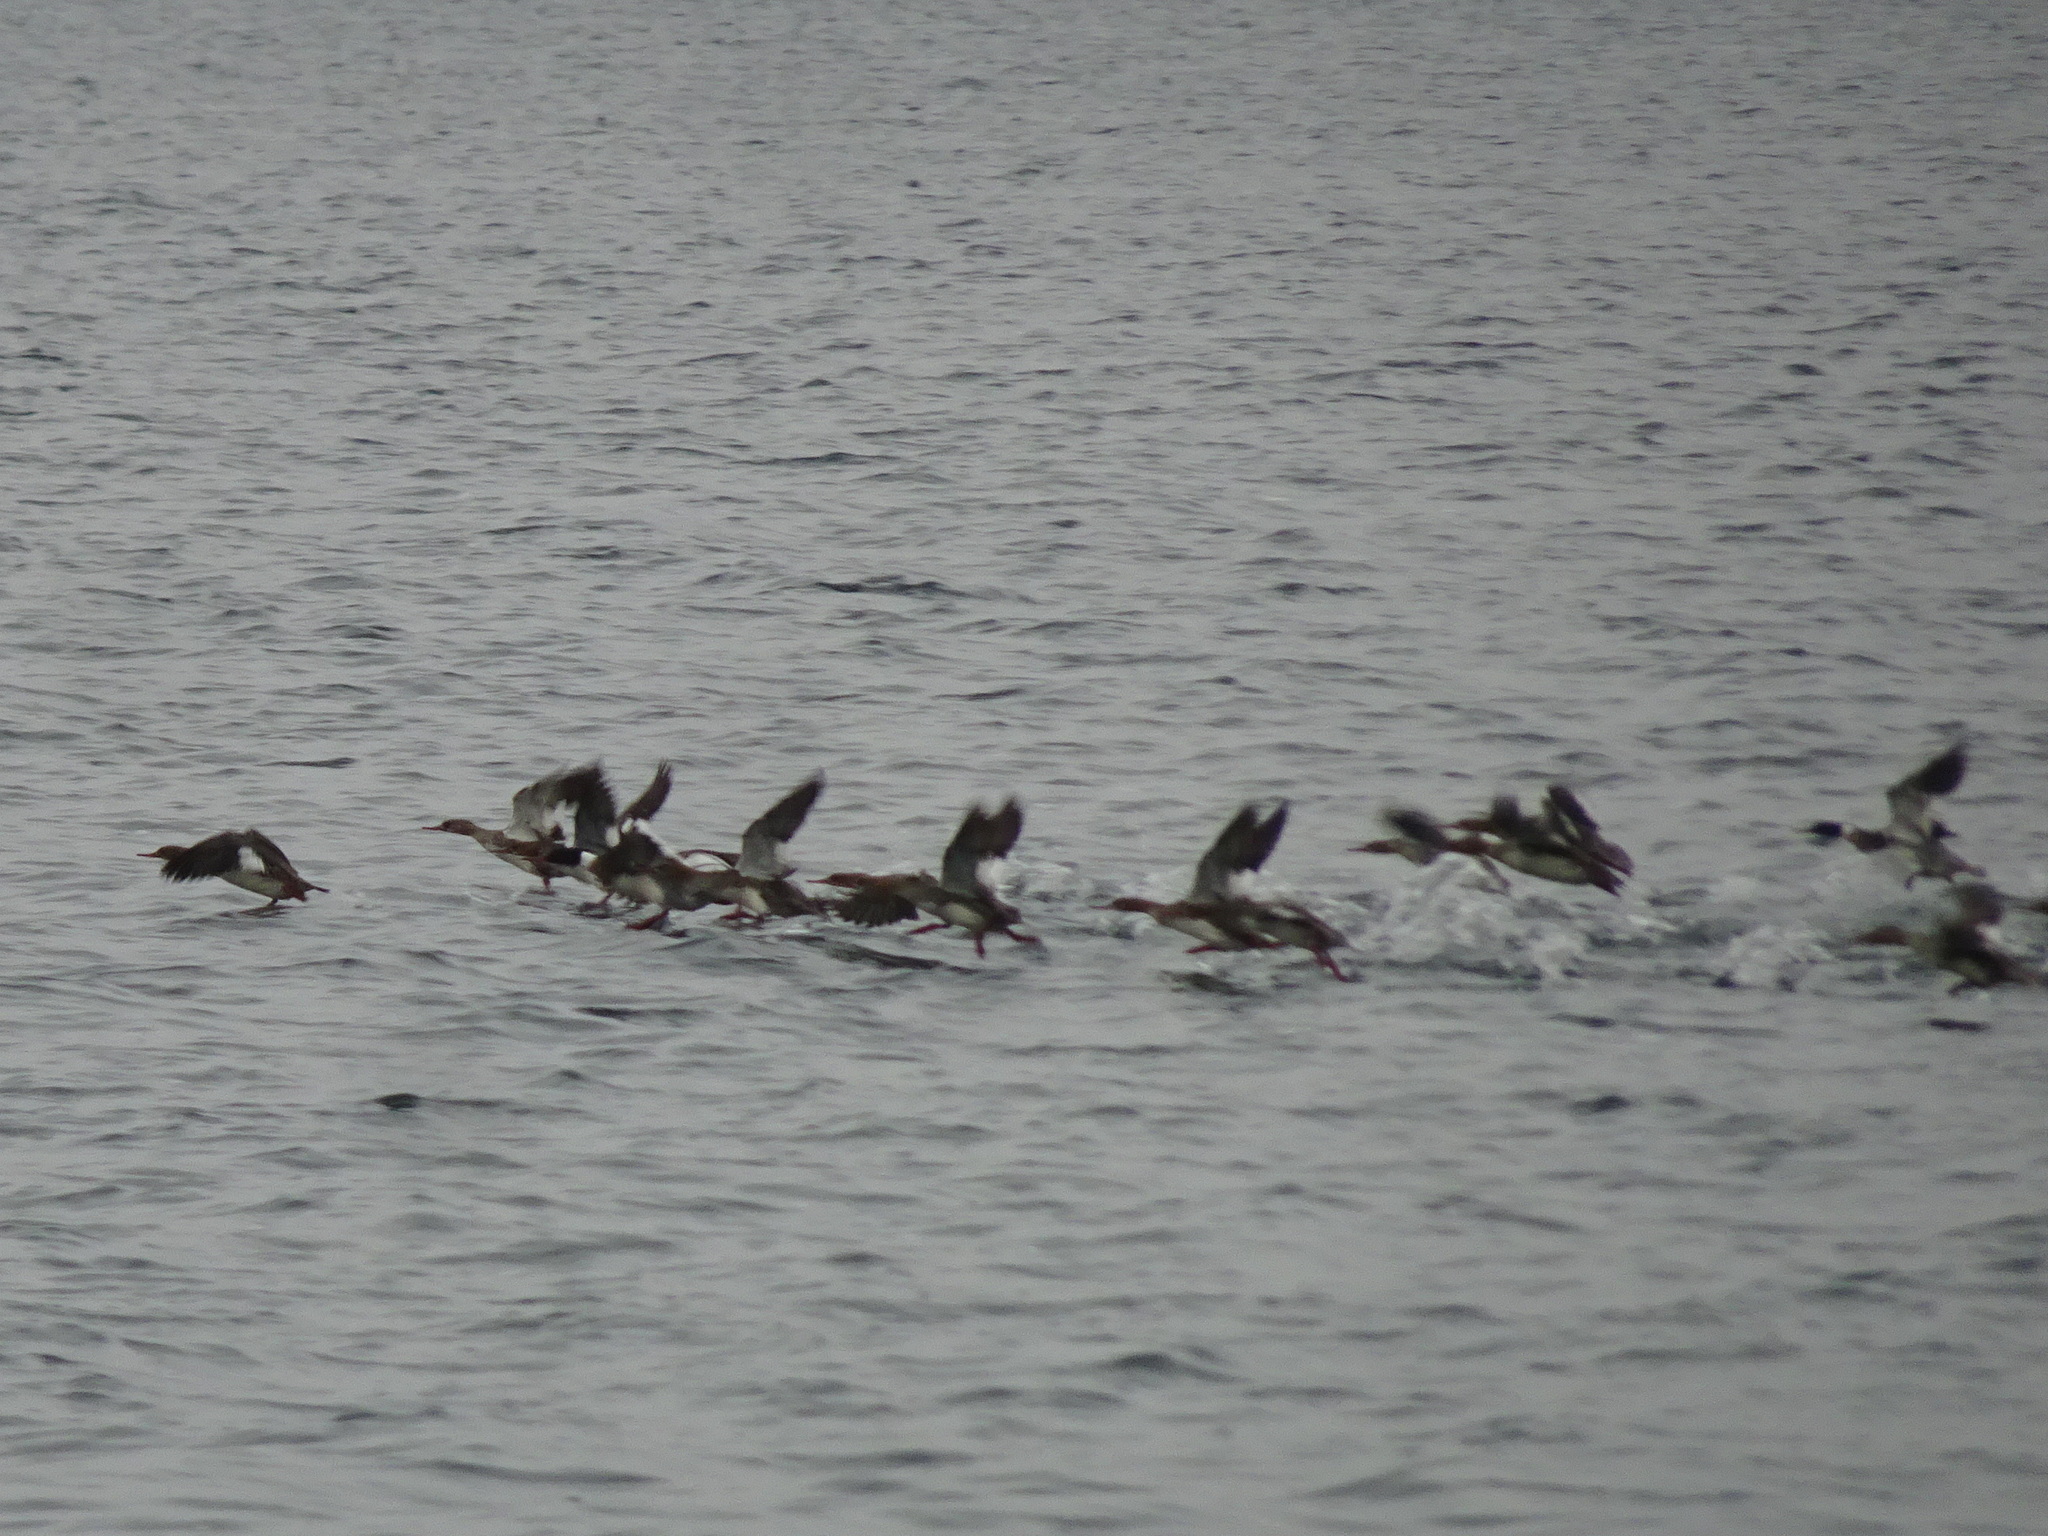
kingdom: Animalia
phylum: Chordata
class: Aves
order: Anseriformes
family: Anatidae
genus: Mergus
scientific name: Mergus serrator
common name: Red-breasted merganser
